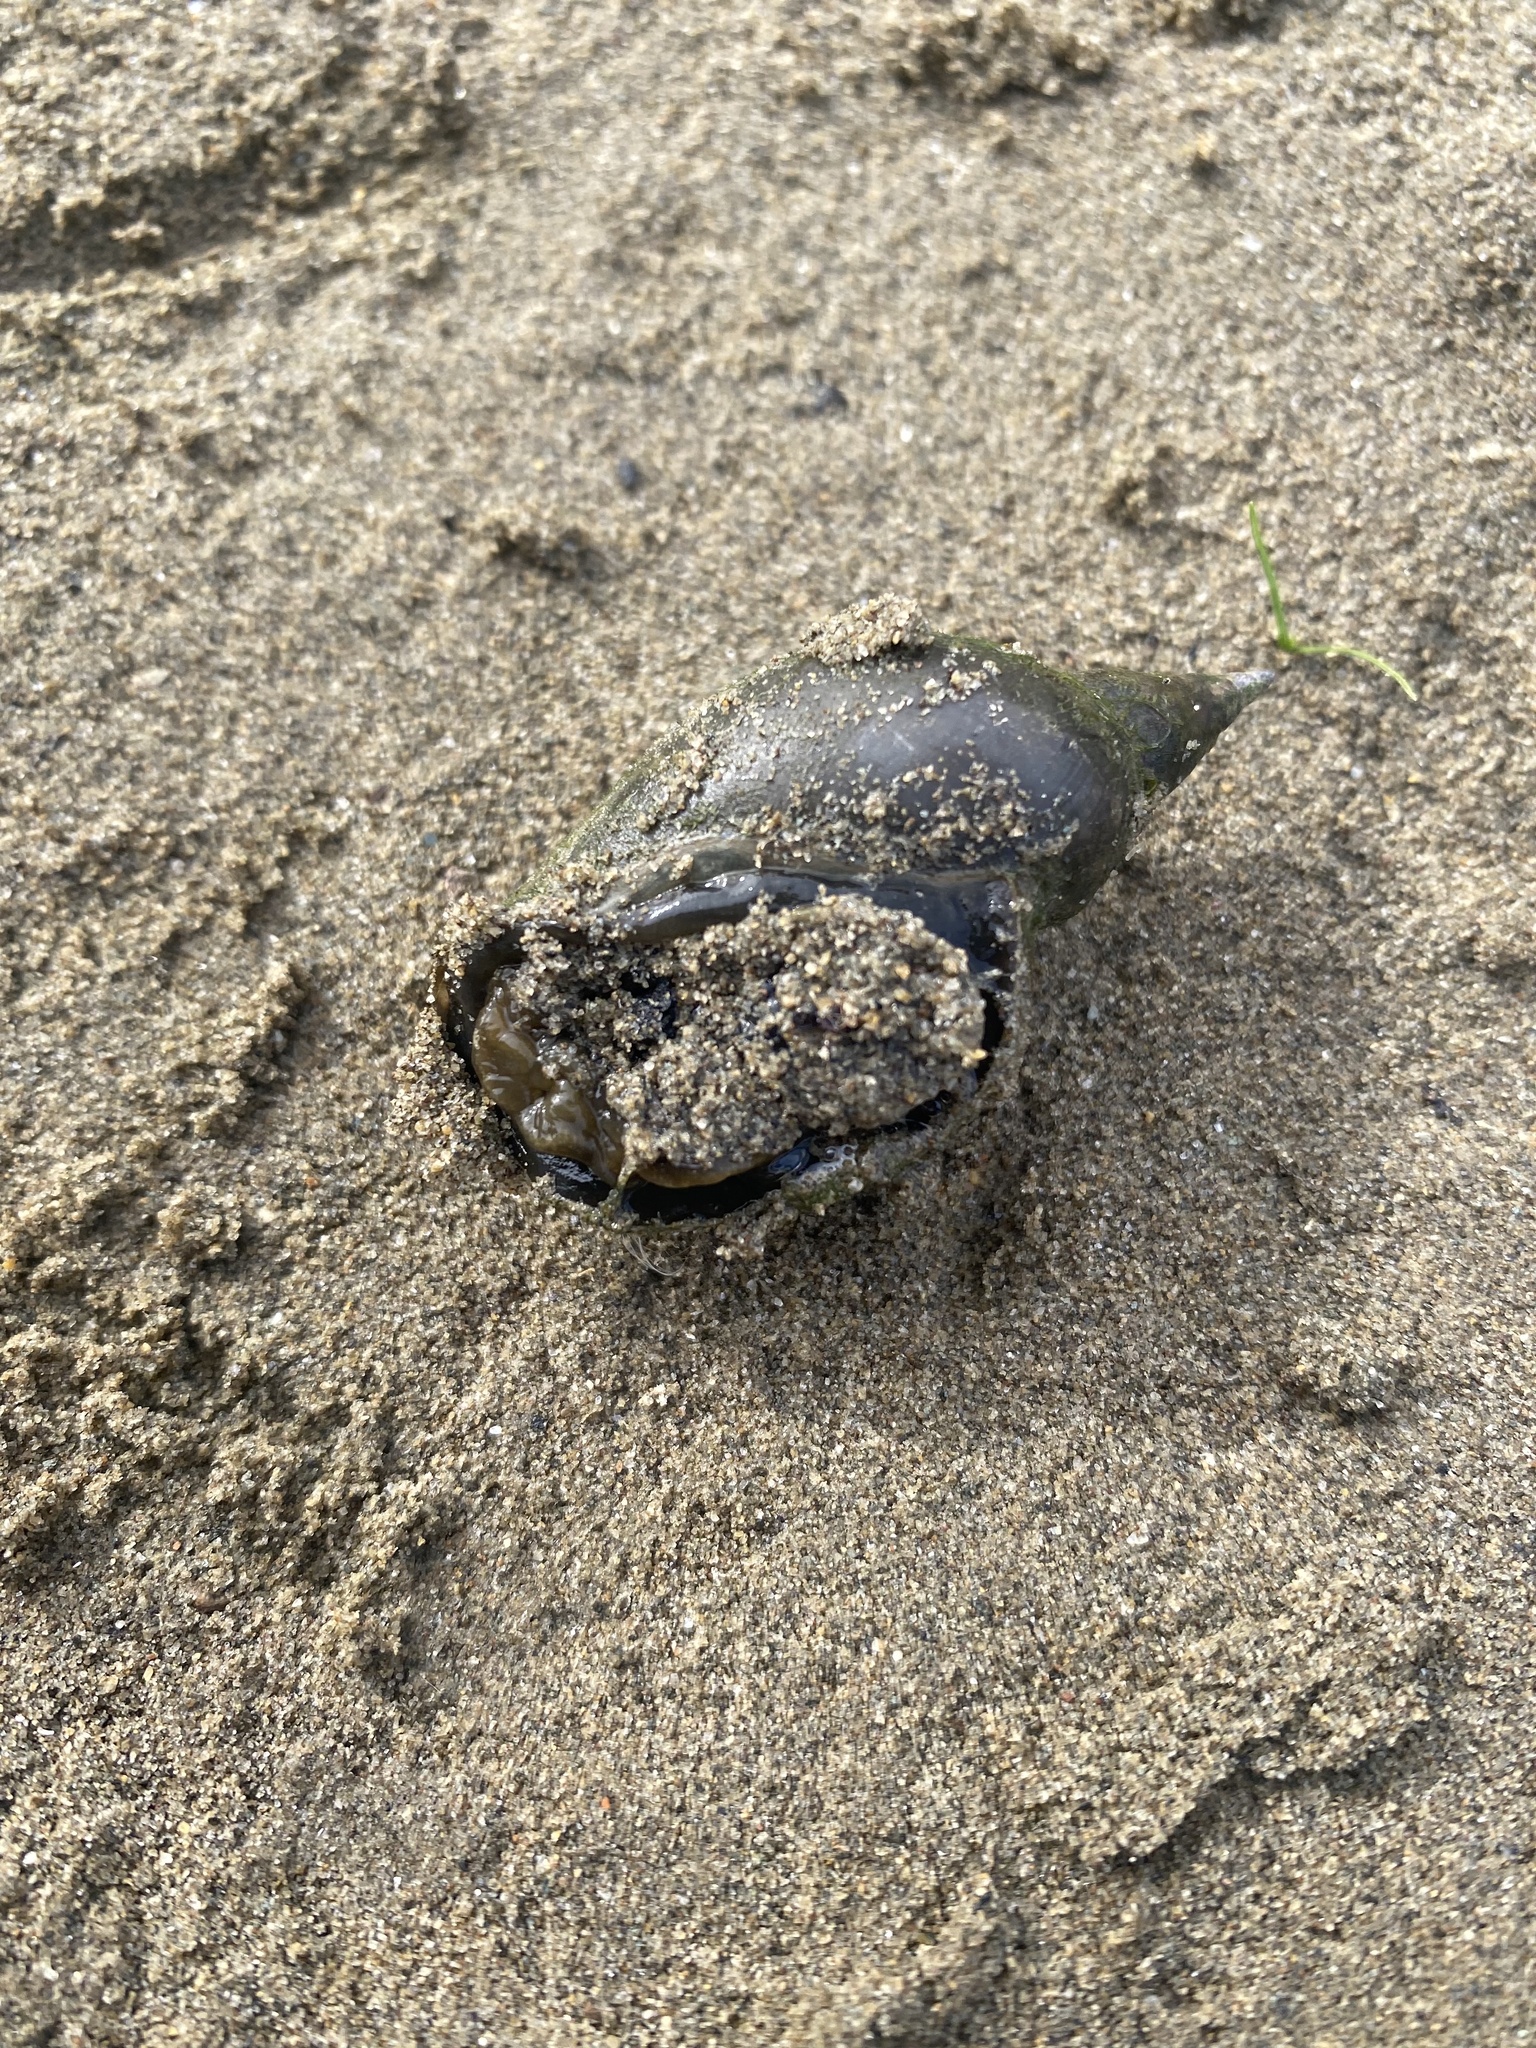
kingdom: Animalia
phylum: Mollusca
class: Gastropoda
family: Lymnaeidae
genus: Lymnaea
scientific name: Lymnaea stagnalis
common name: Great pond snail
